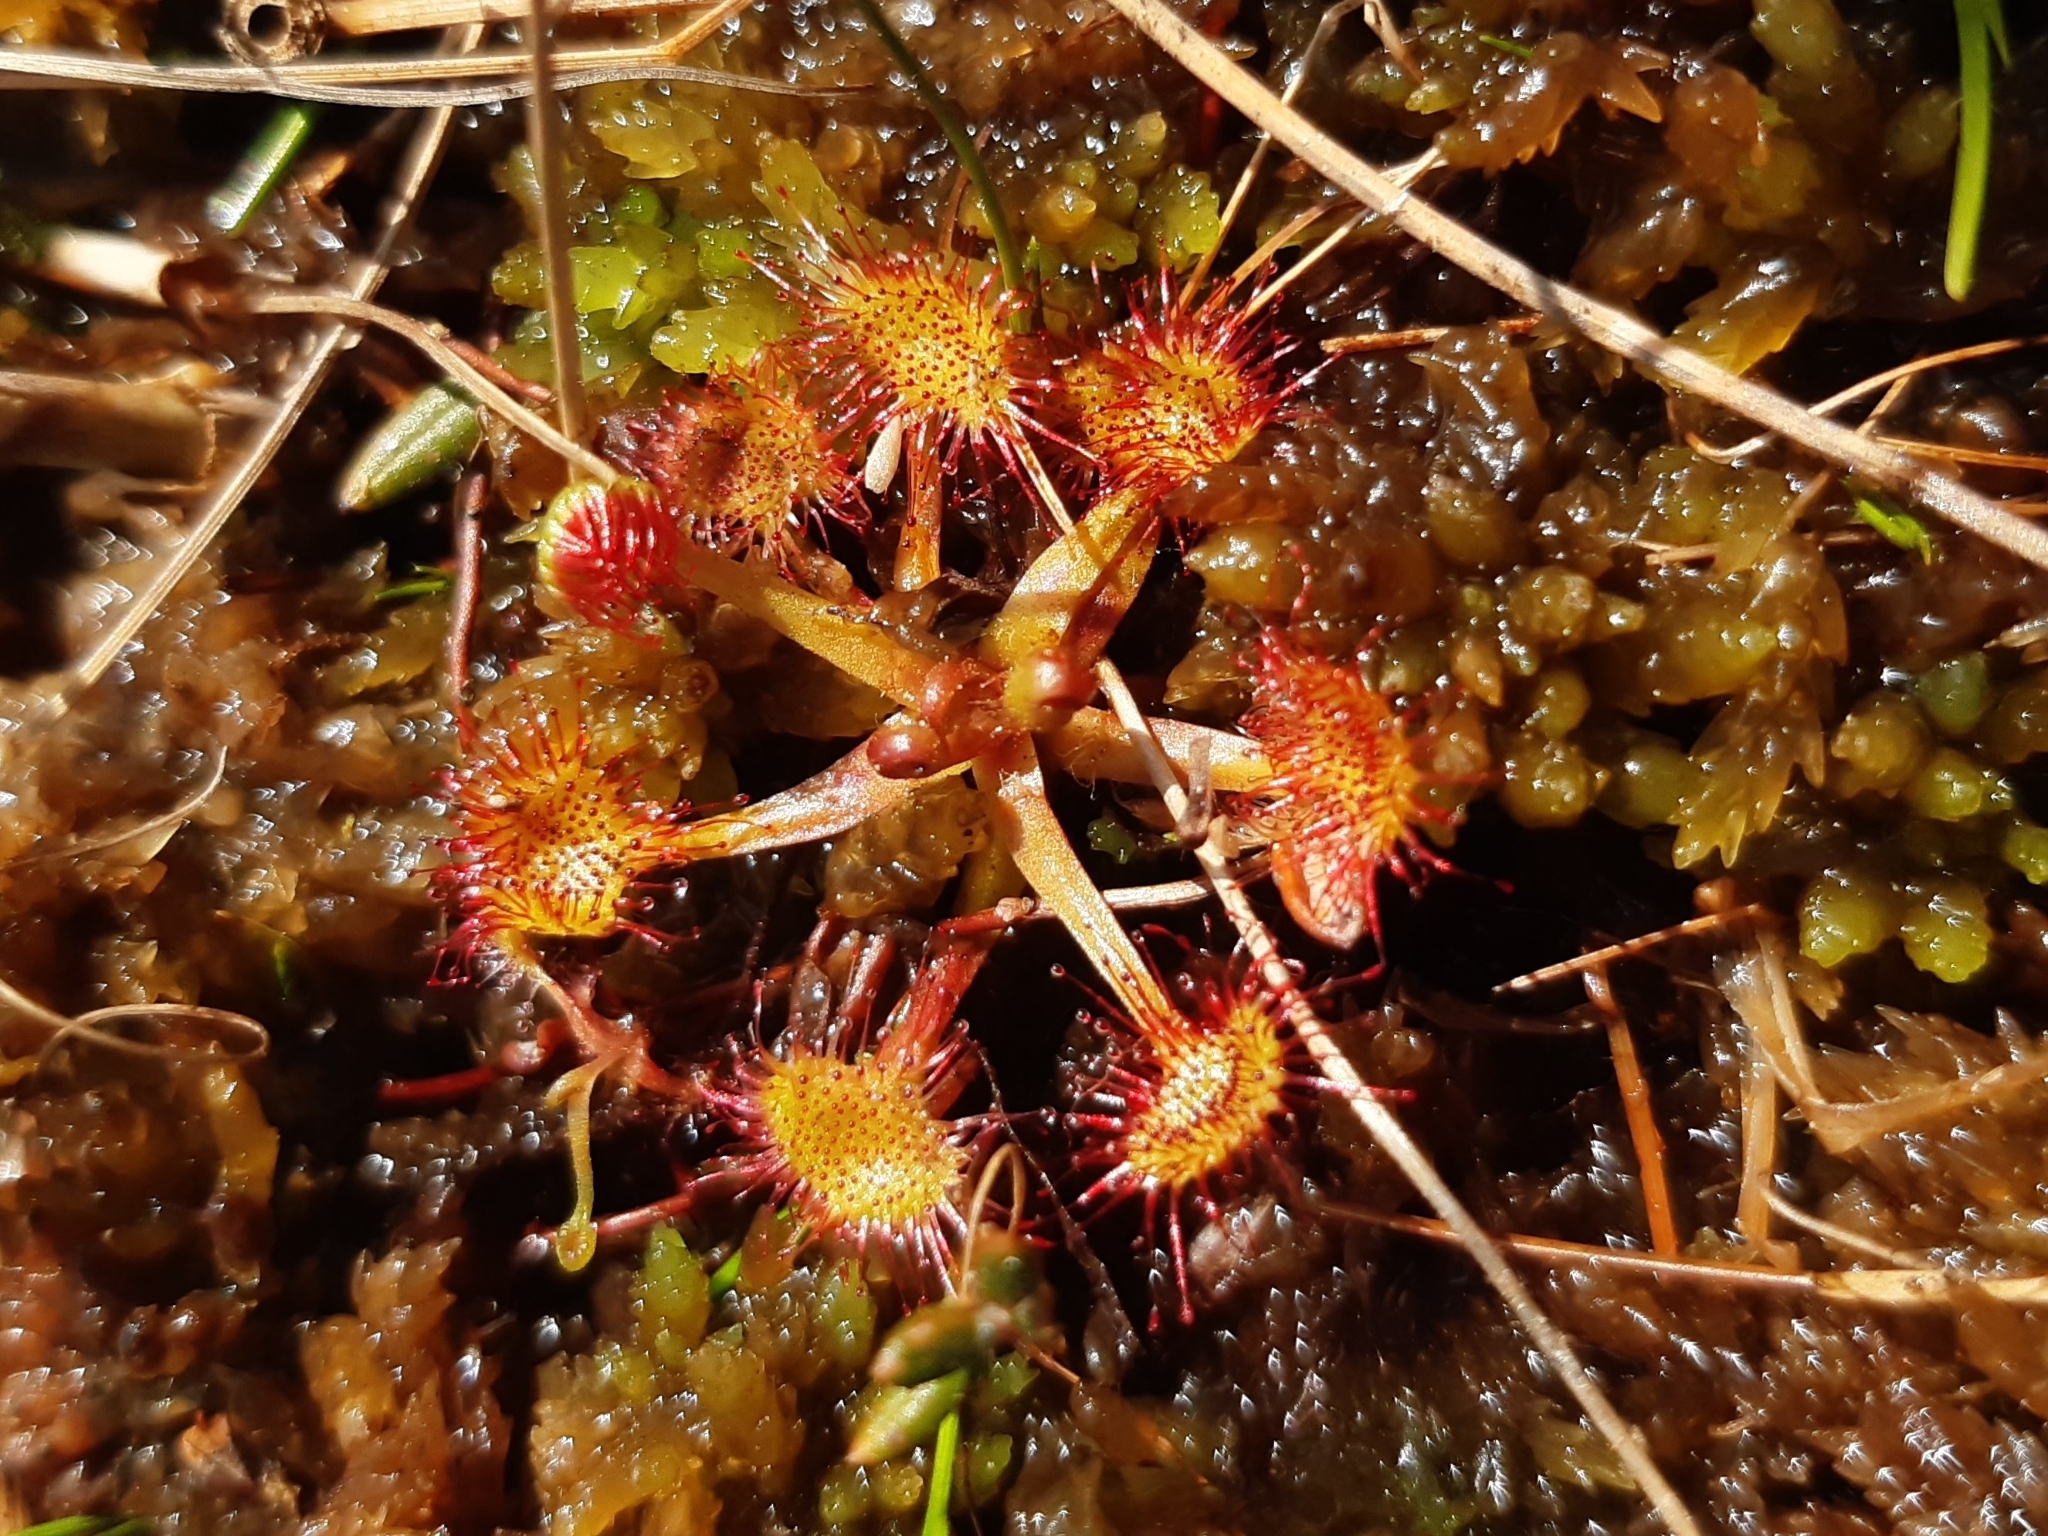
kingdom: Plantae
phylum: Tracheophyta
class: Magnoliopsida
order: Caryophyllales
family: Droseraceae
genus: Drosera
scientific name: Drosera rotundifolia
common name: Round-leaved sundew
